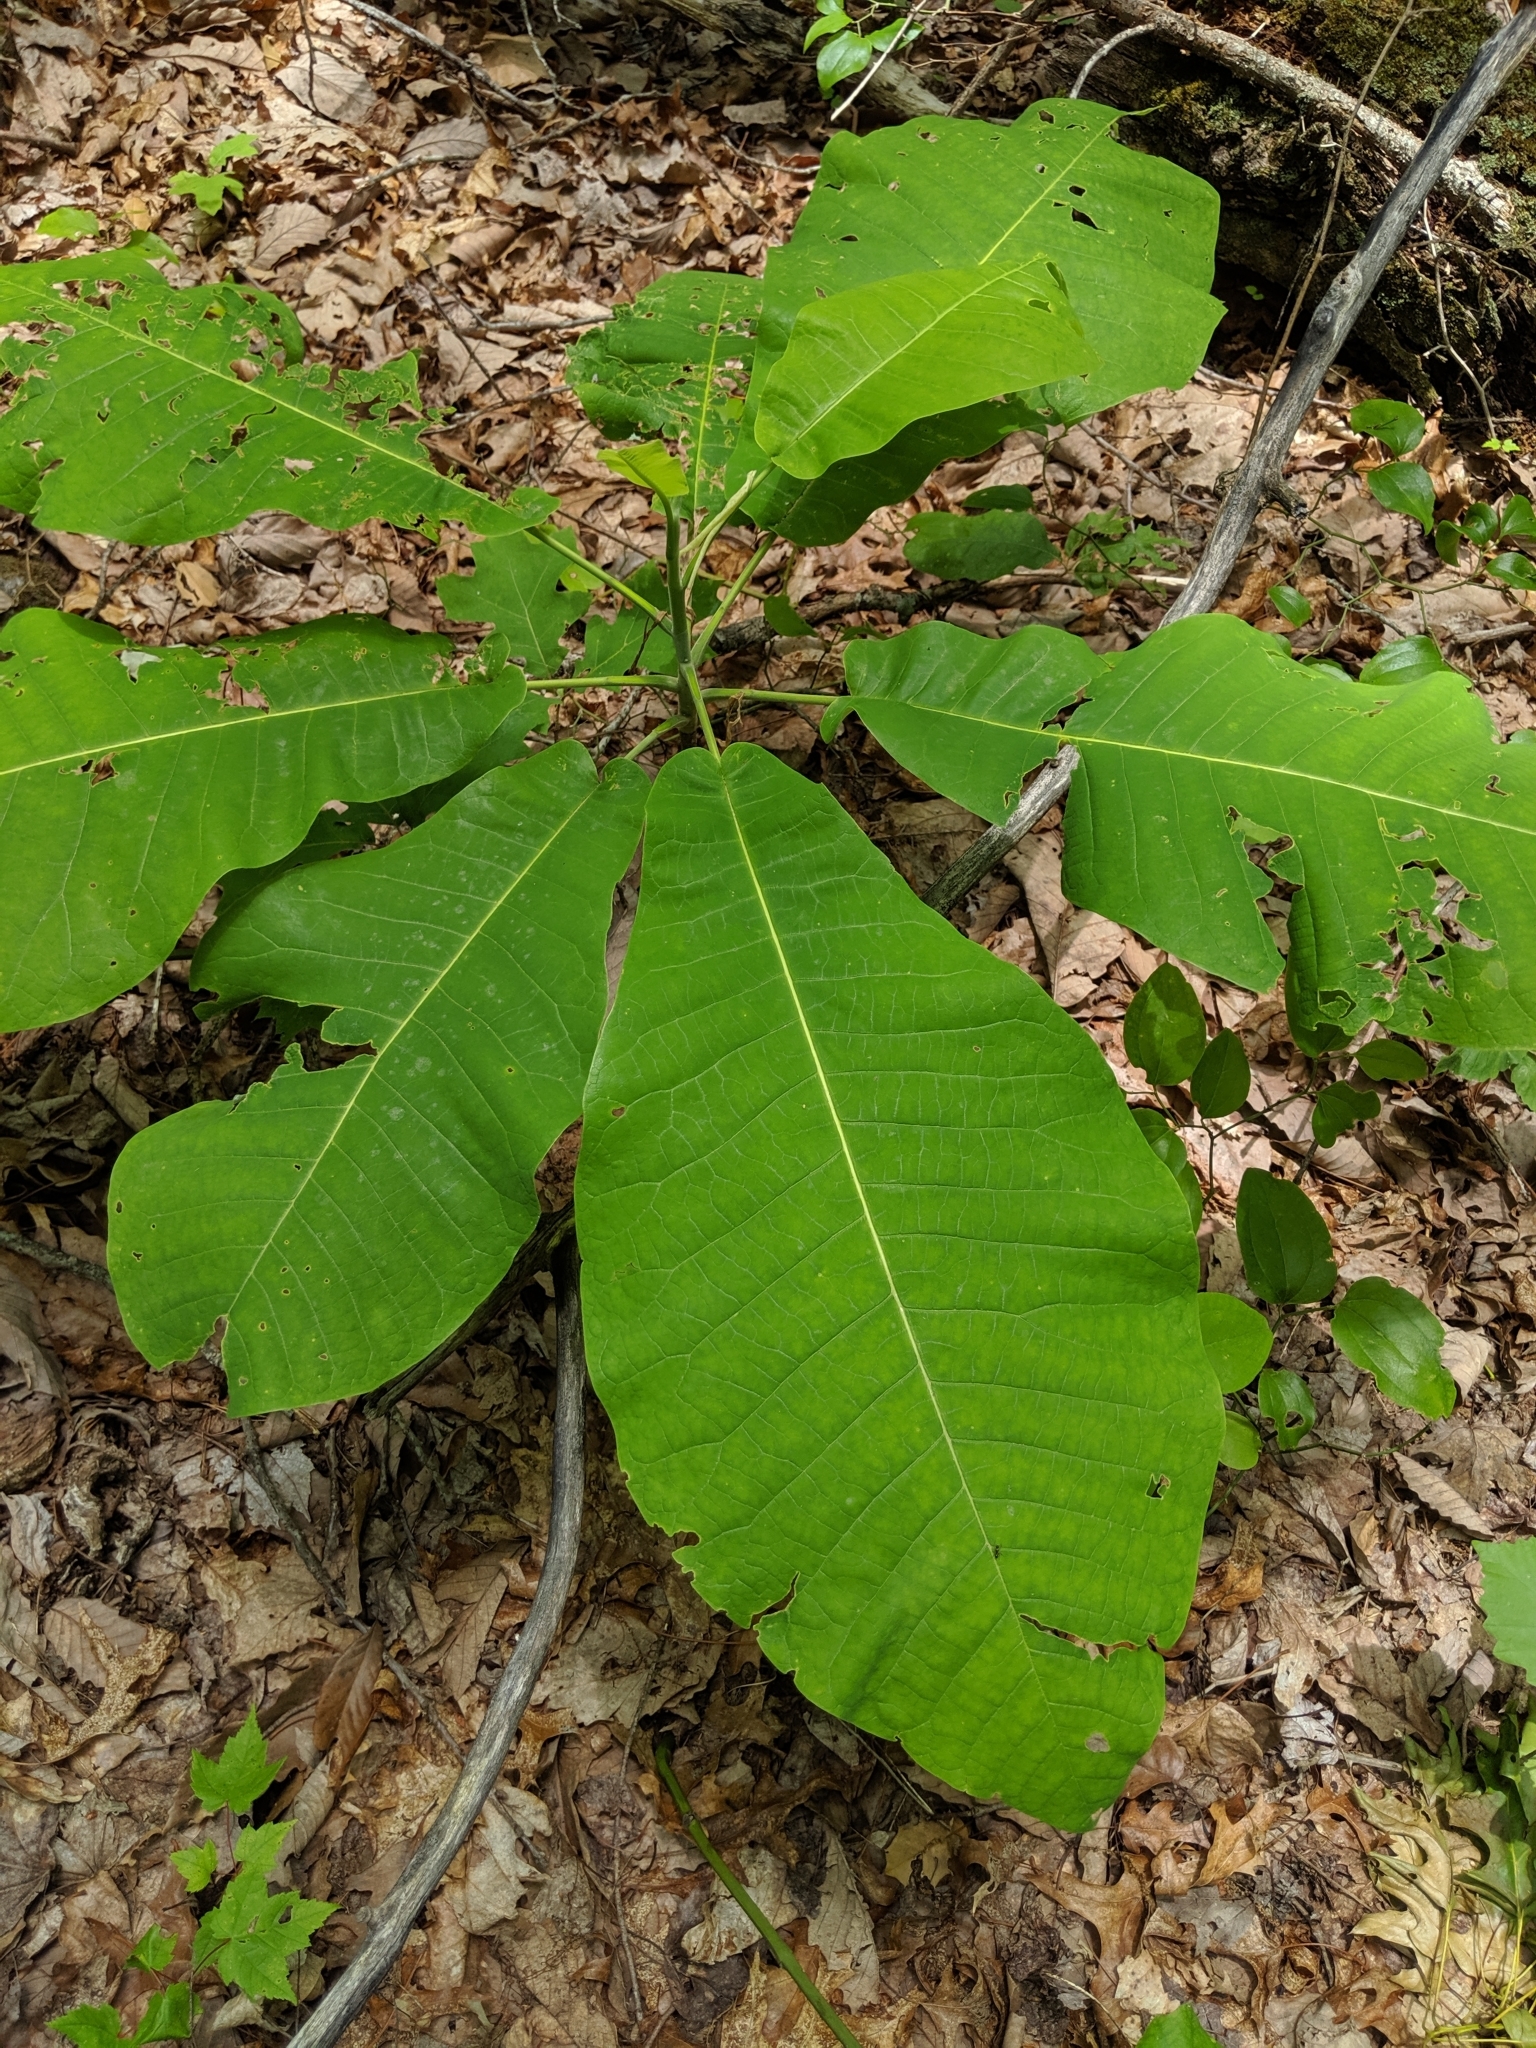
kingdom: Plantae
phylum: Tracheophyta
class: Magnoliopsida
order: Magnoliales
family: Magnoliaceae
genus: Magnolia
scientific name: Magnolia macrophylla
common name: Big-leaf magnolia
